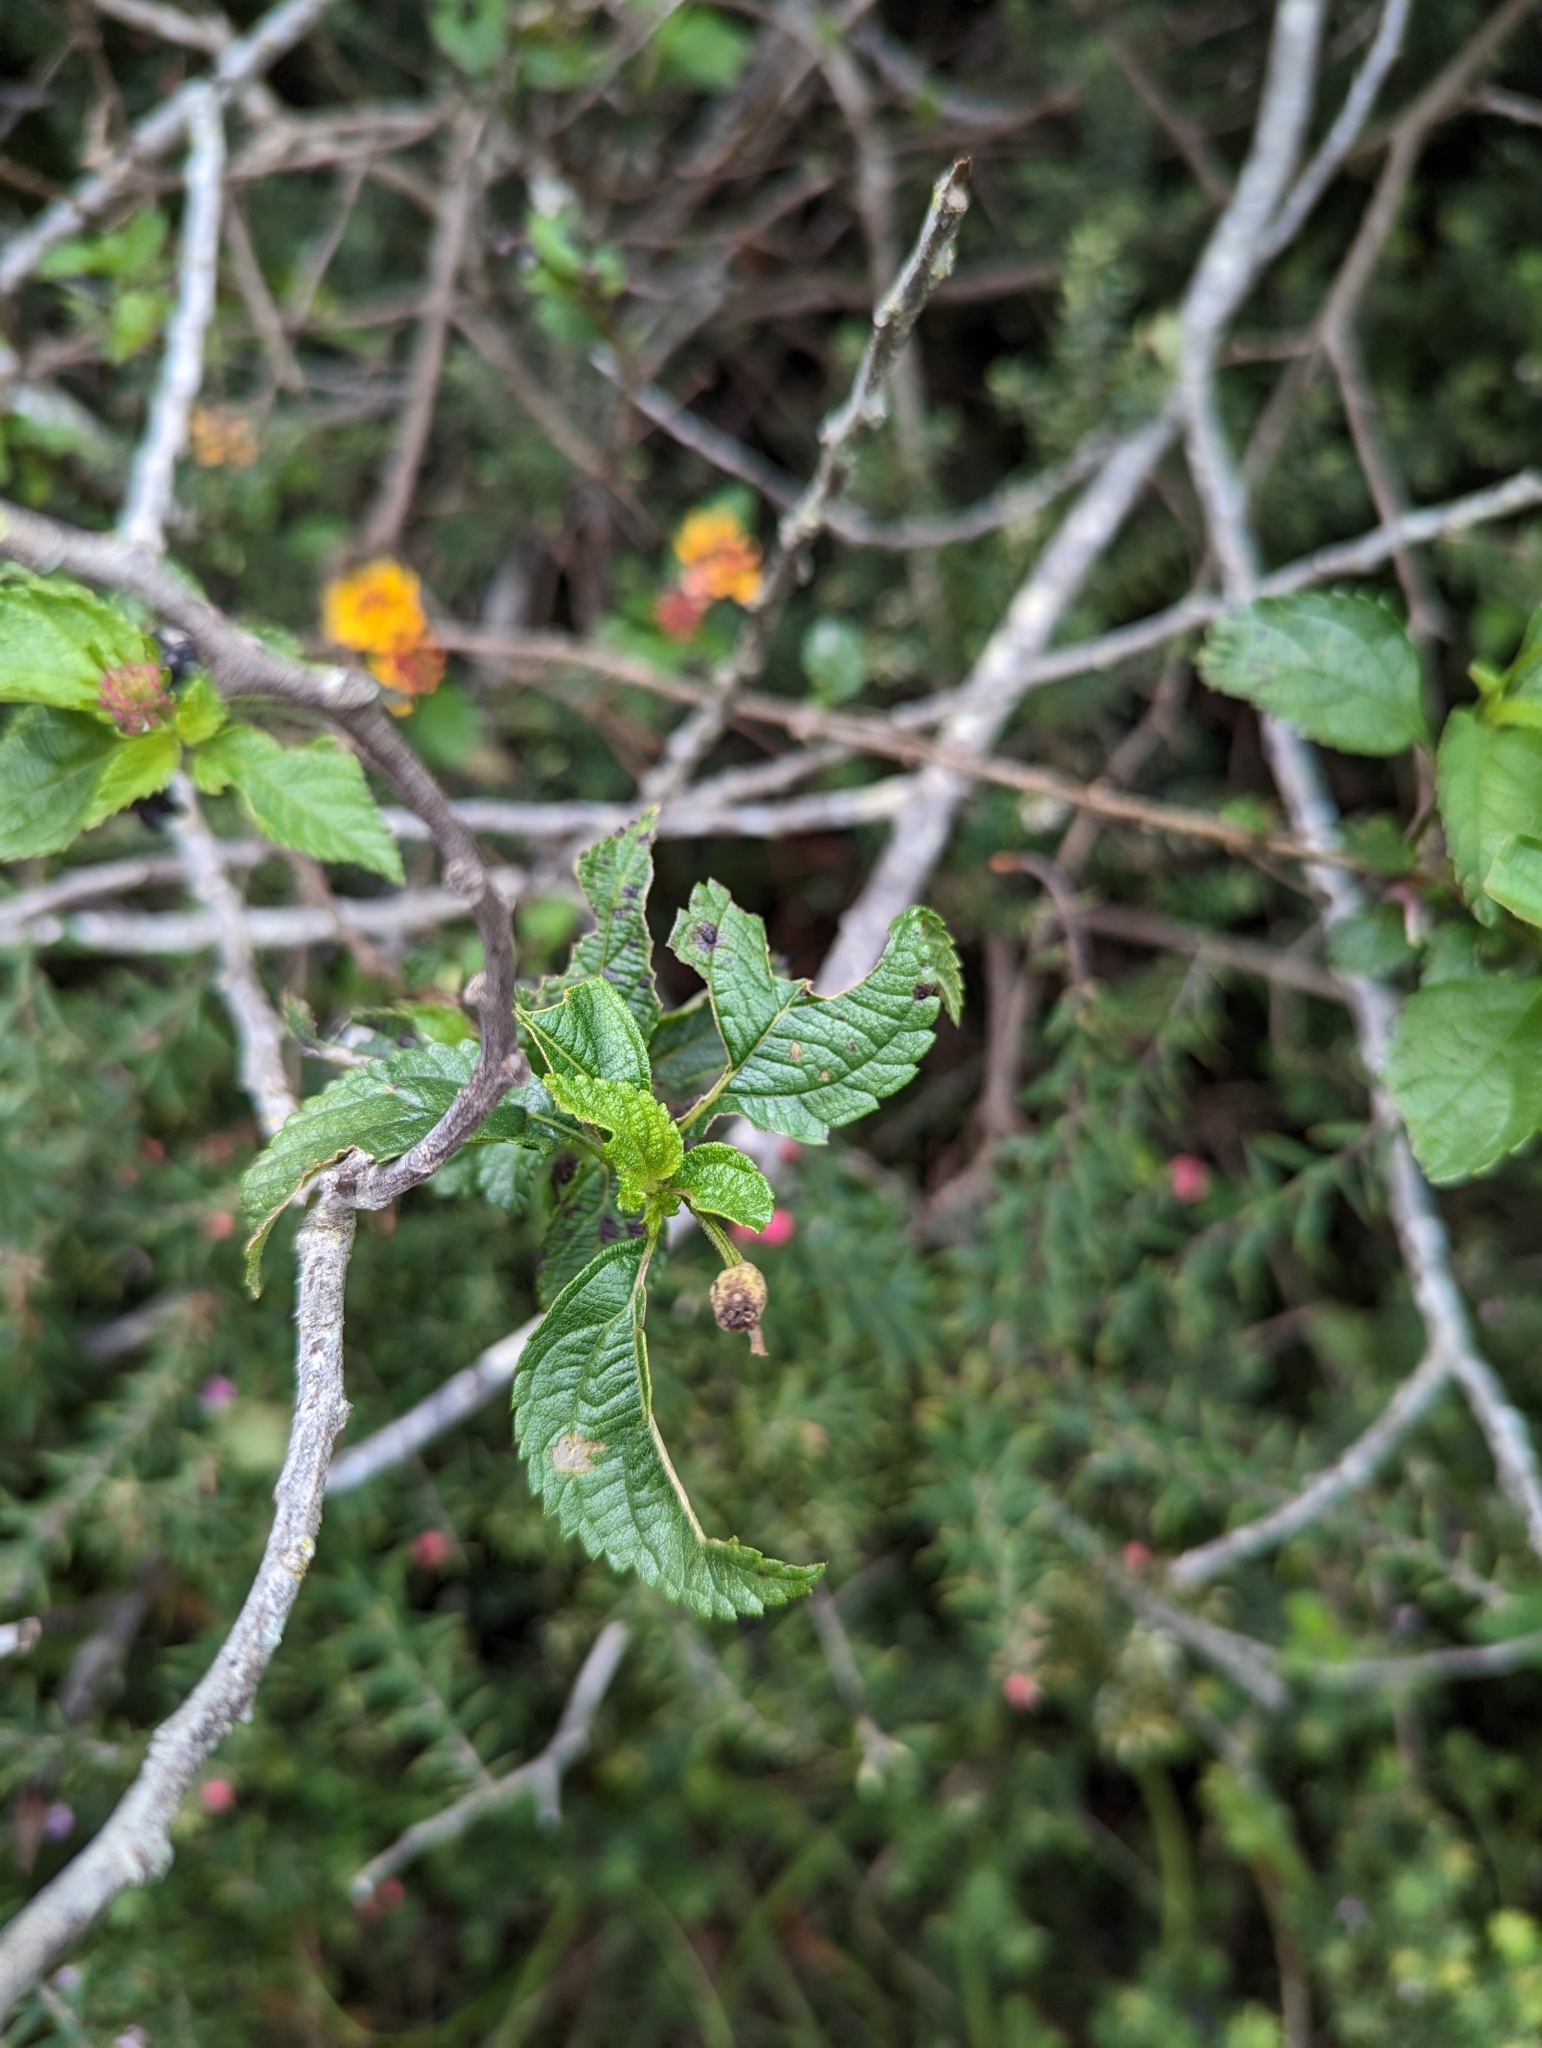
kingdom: Plantae
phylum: Tracheophyta
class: Magnoliopsida
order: Lamiales
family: Verbenaceae
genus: Lantana
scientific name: Lantana camara
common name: Lantana
